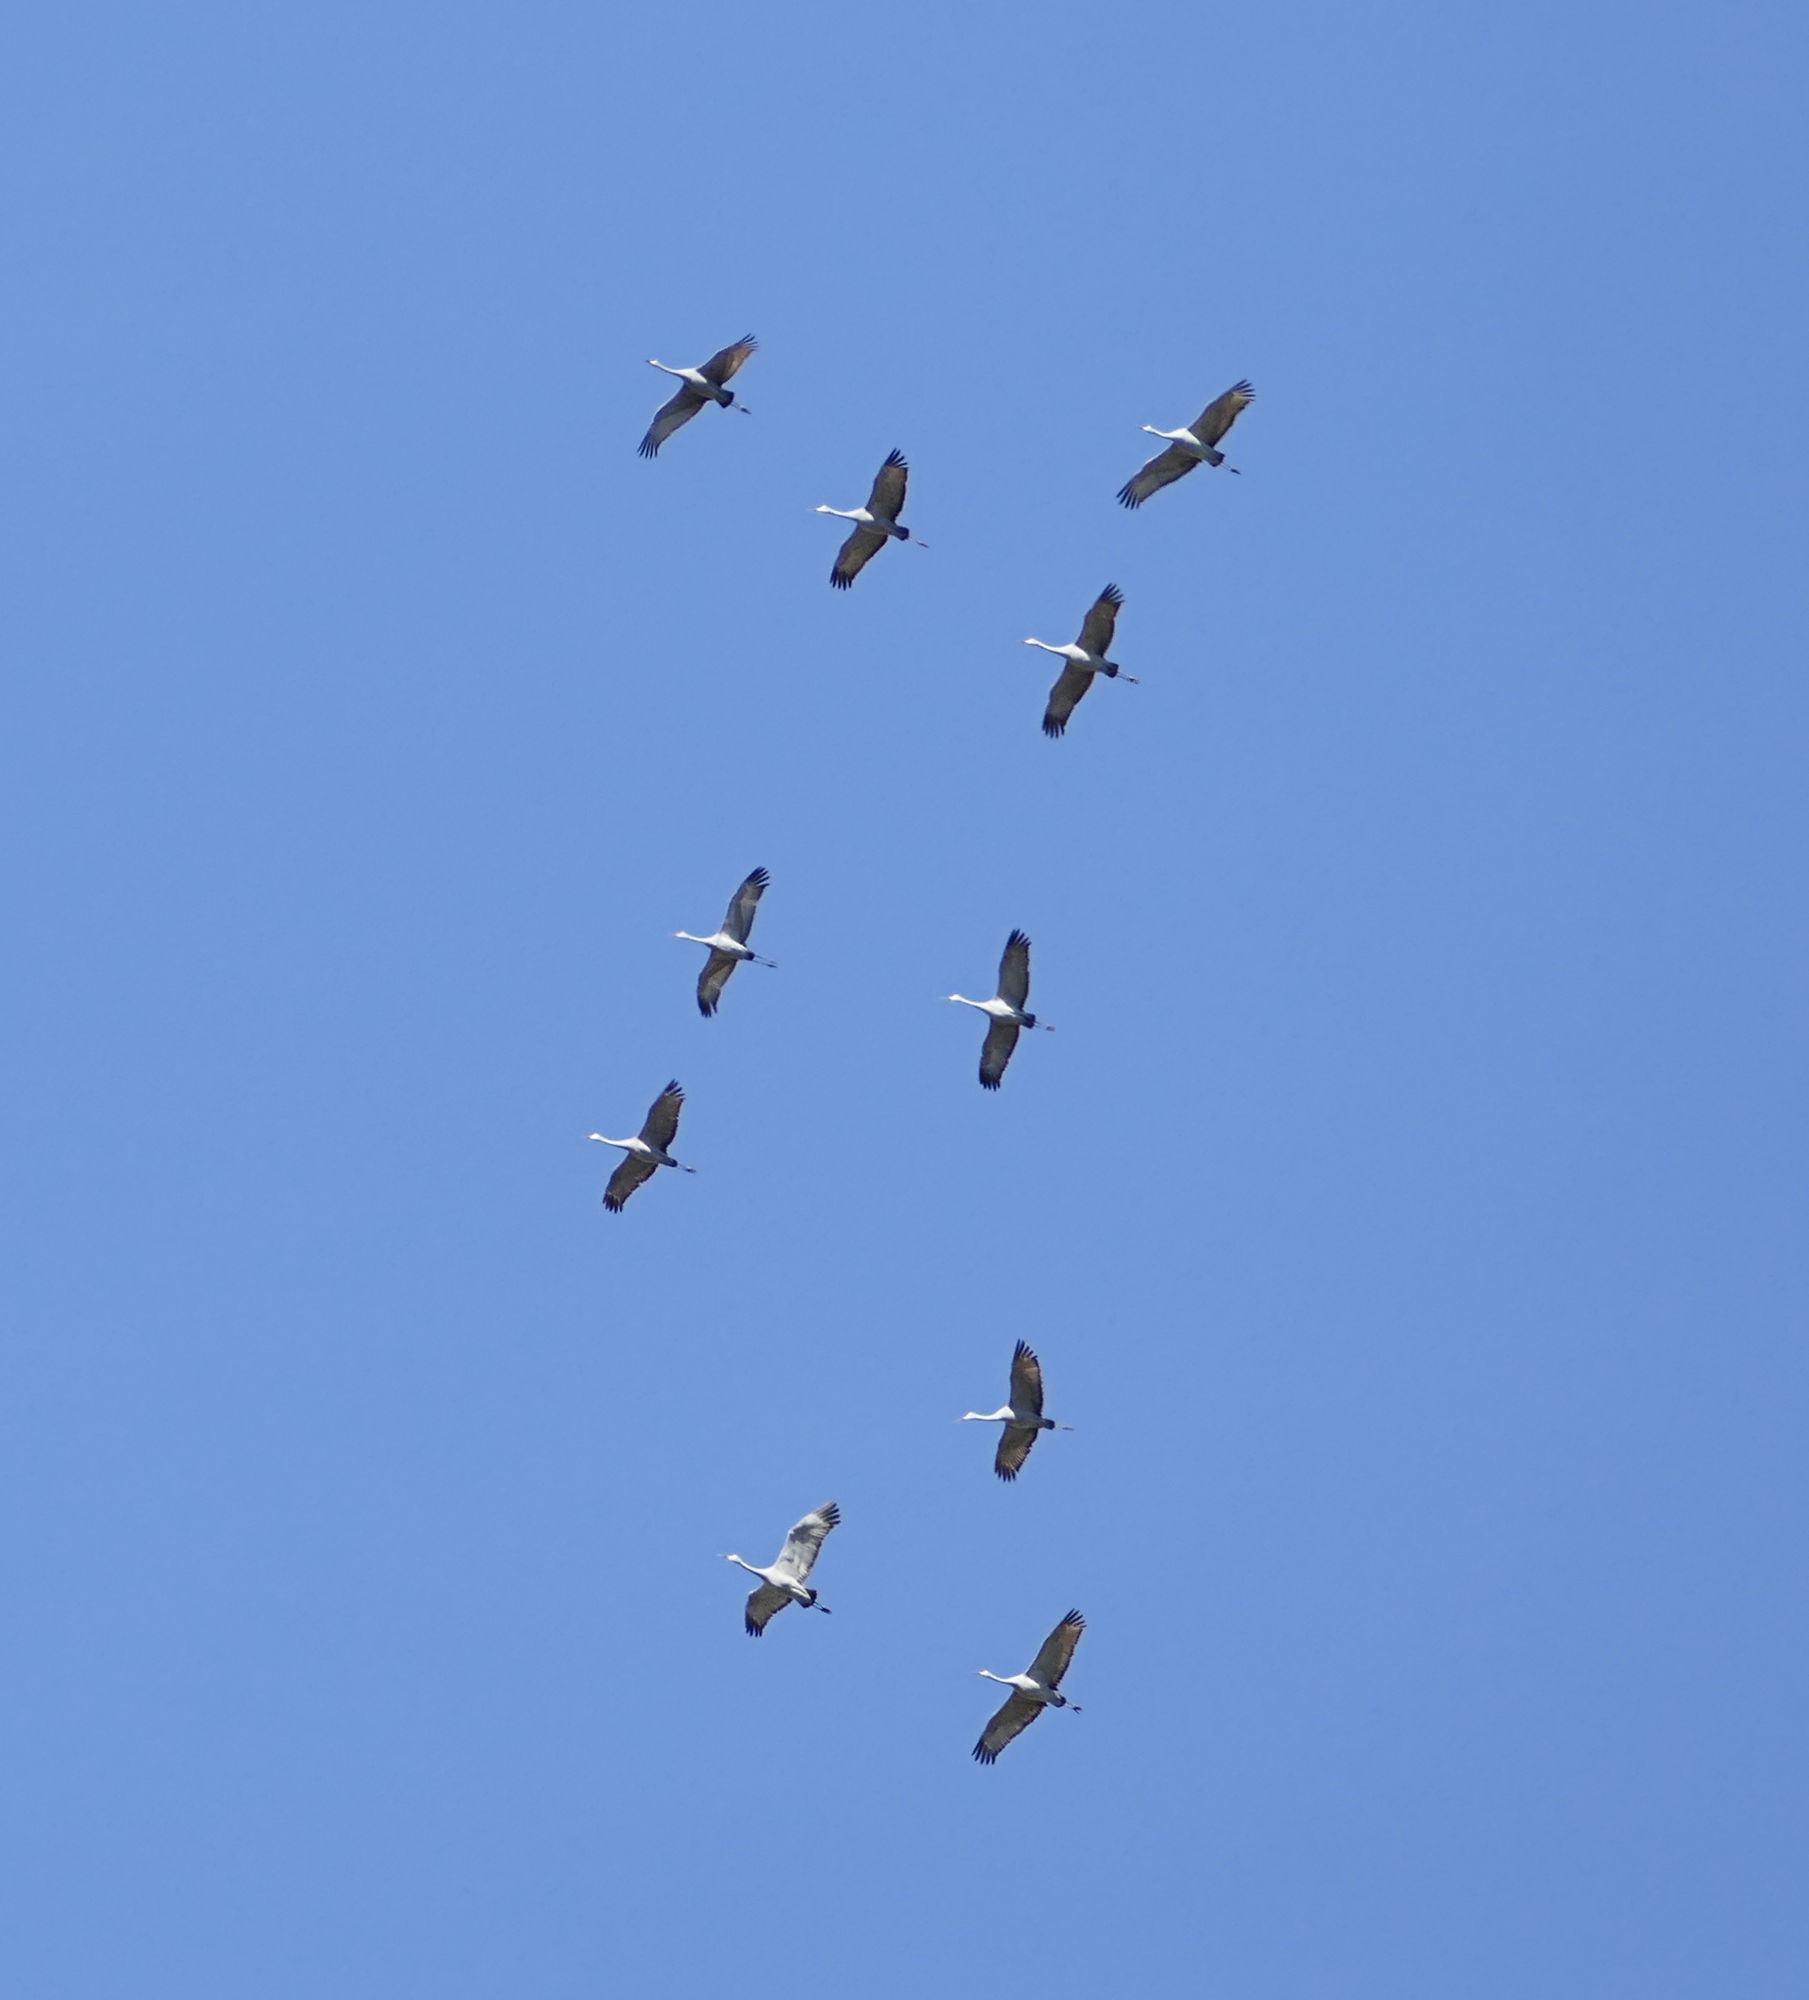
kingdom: Animalia
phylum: Chordata
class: Aves
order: Gruiformes
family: Gruidae
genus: Grus
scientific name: Grus canadensis
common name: Sandhill crane
